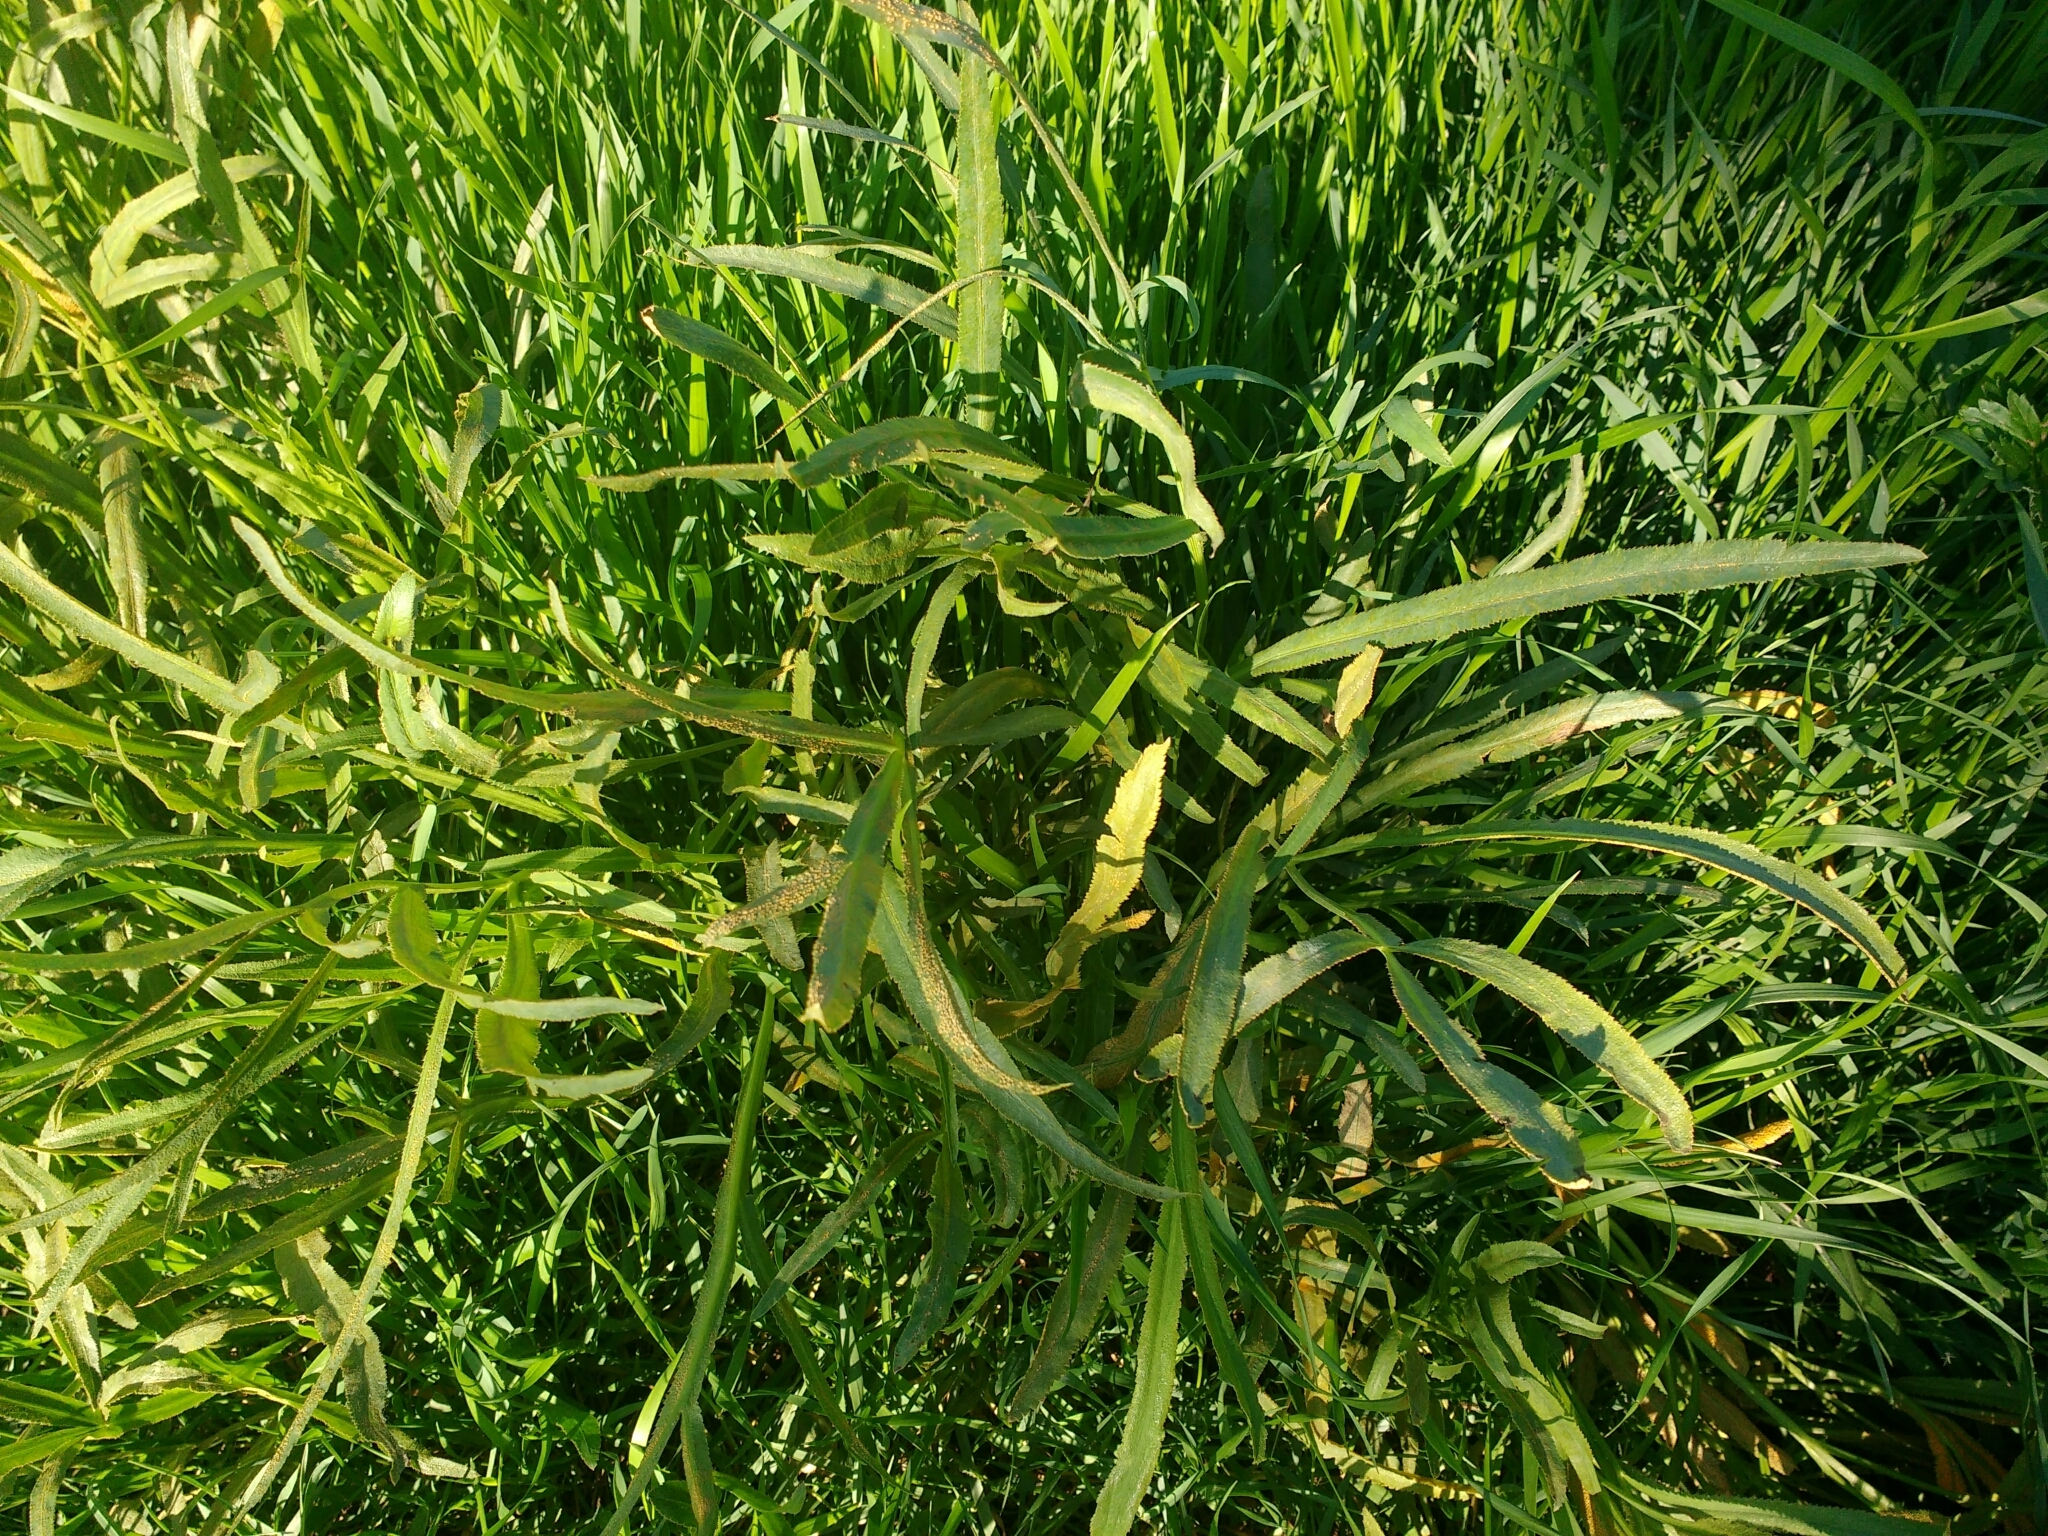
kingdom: Plantae
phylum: Tracheophyta
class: Magnoliopsida
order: Apiales
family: Apiaceae
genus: Falcaria
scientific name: Falcaria vulgaris
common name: Longleaf
